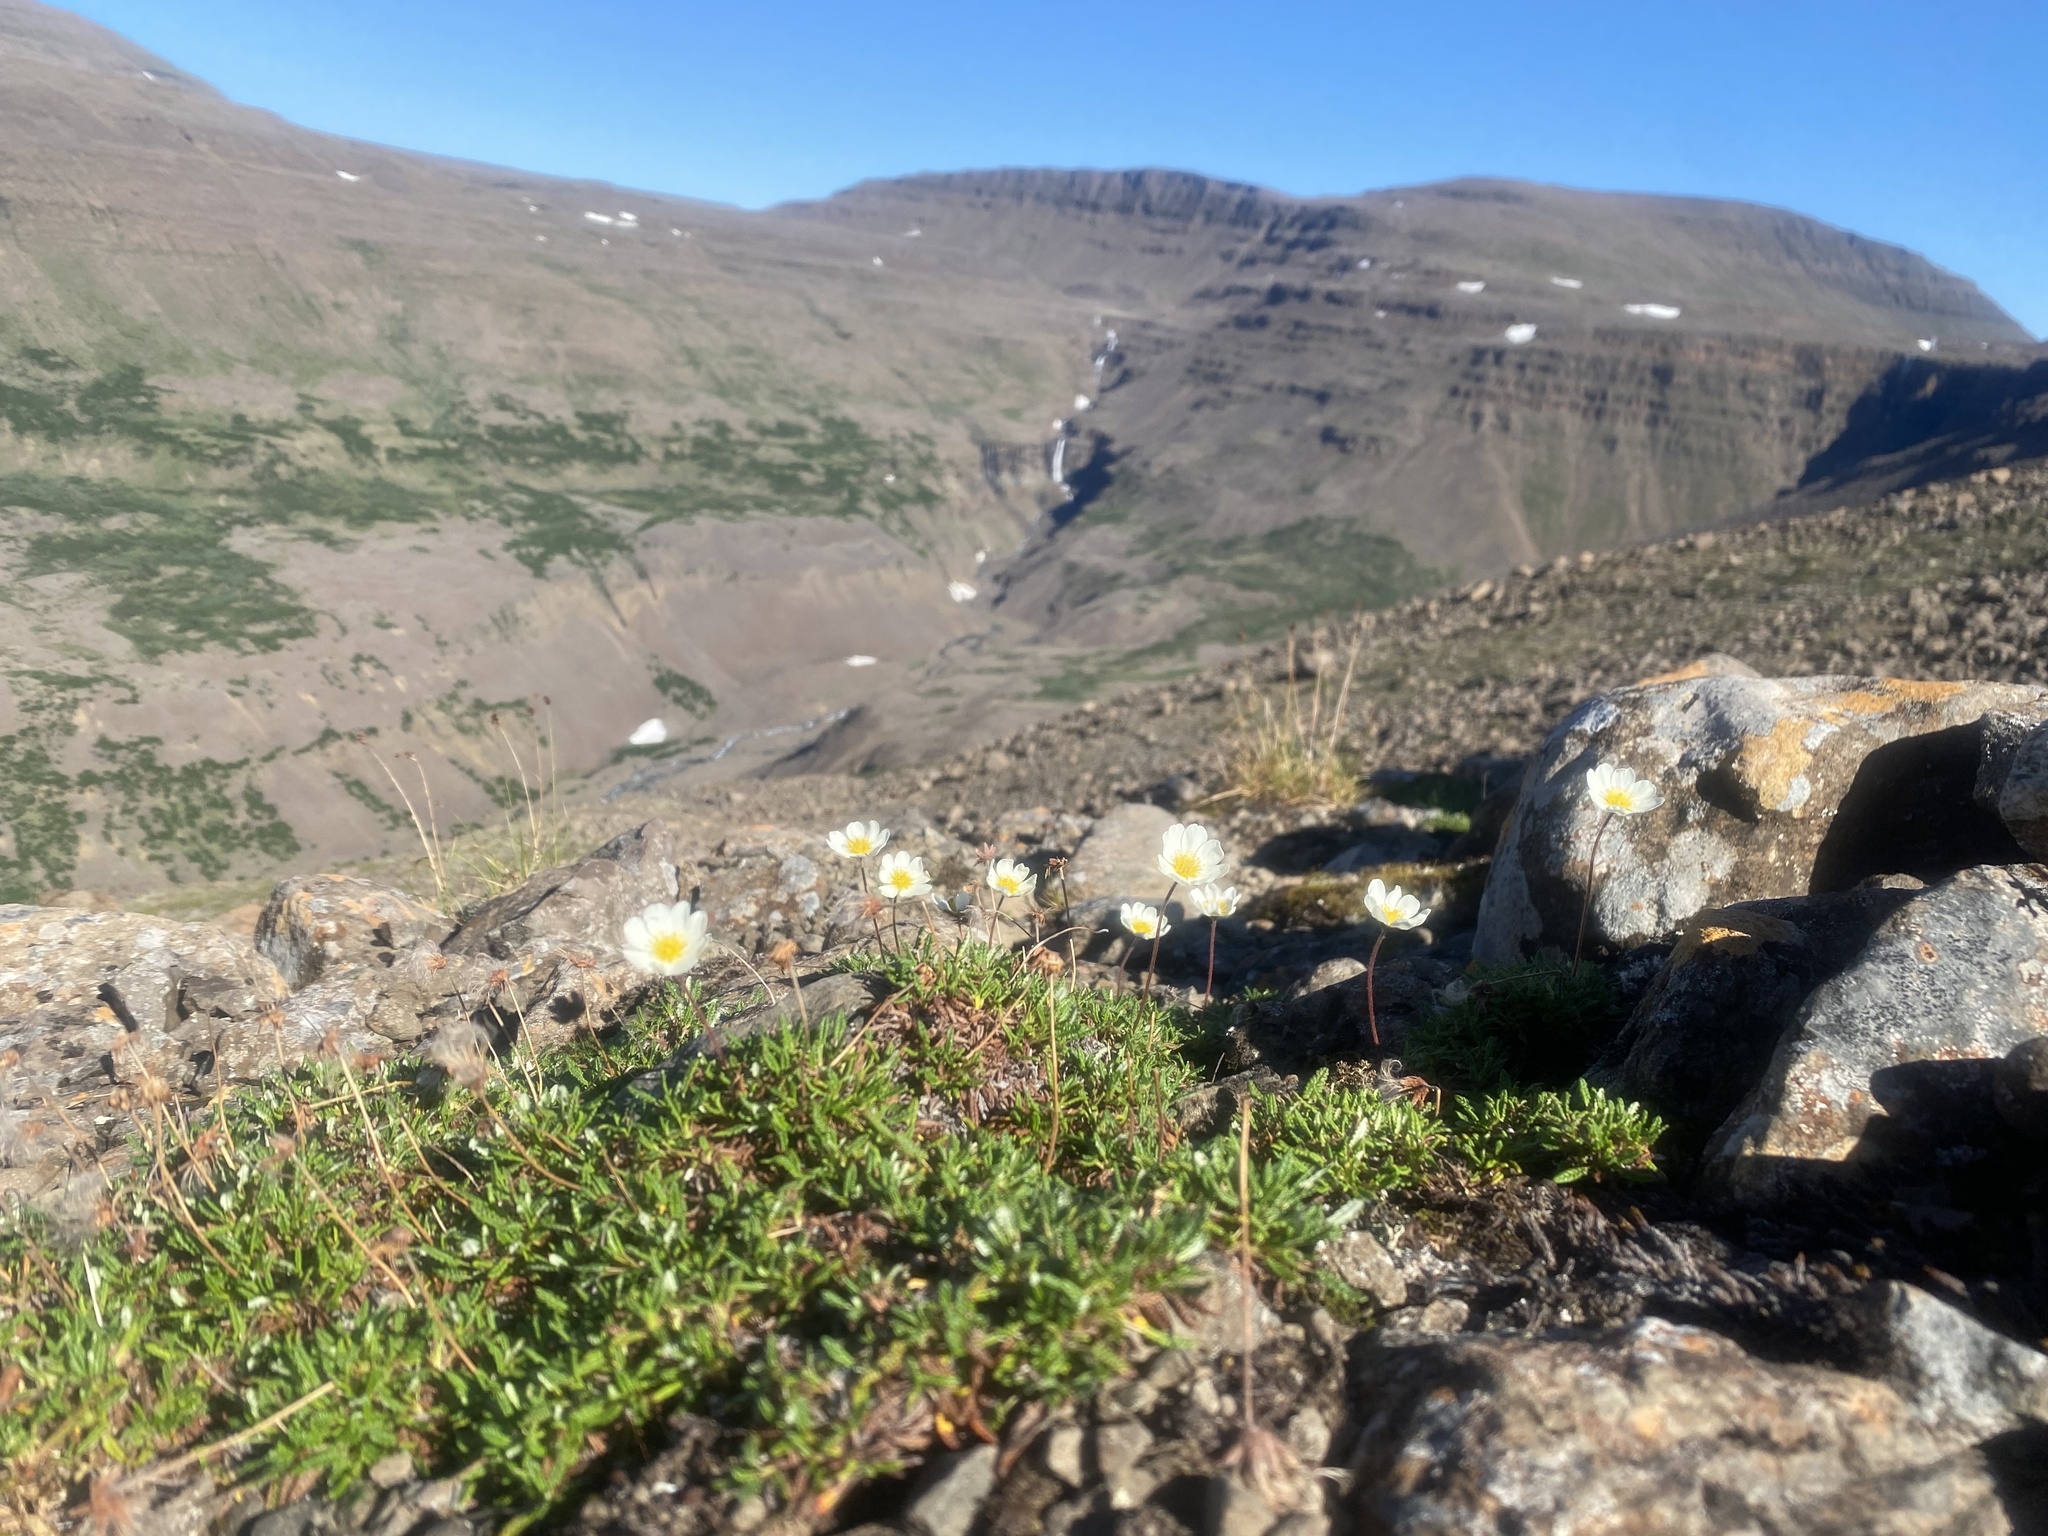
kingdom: Plantae
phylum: Tracheophyta
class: Magnoliopsida
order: Rosales
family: Rosaceae
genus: Dryas
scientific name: Dryas octopetala
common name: Eight-petal mountain-avens
